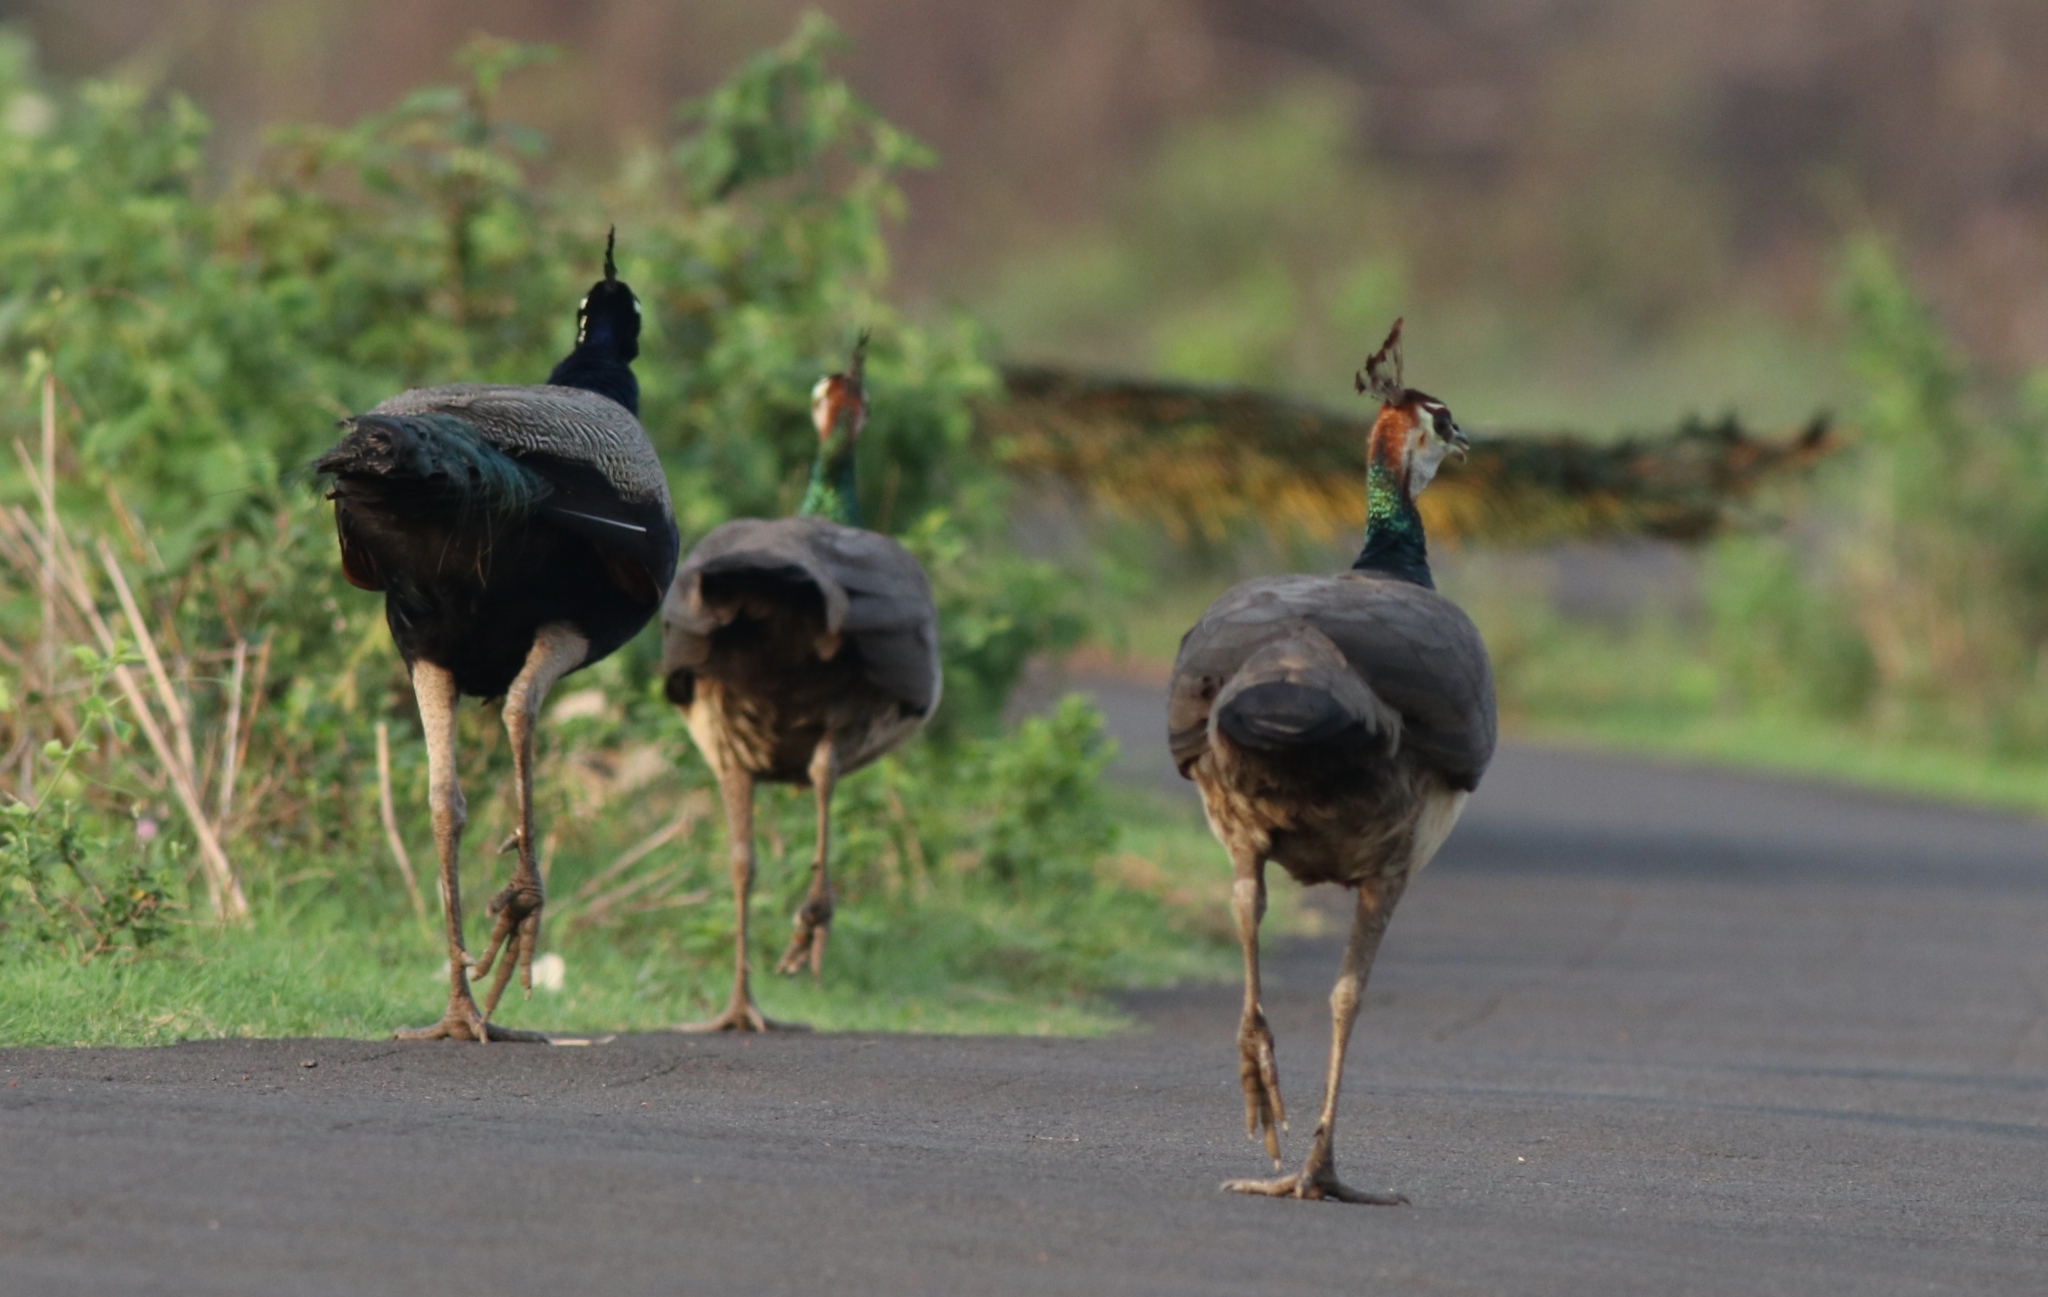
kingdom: Animalia
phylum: Chordata
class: Aves
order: Galliformes
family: Phasianidae
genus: Pavo
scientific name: Pavo cristatus
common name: Indian peafowl
